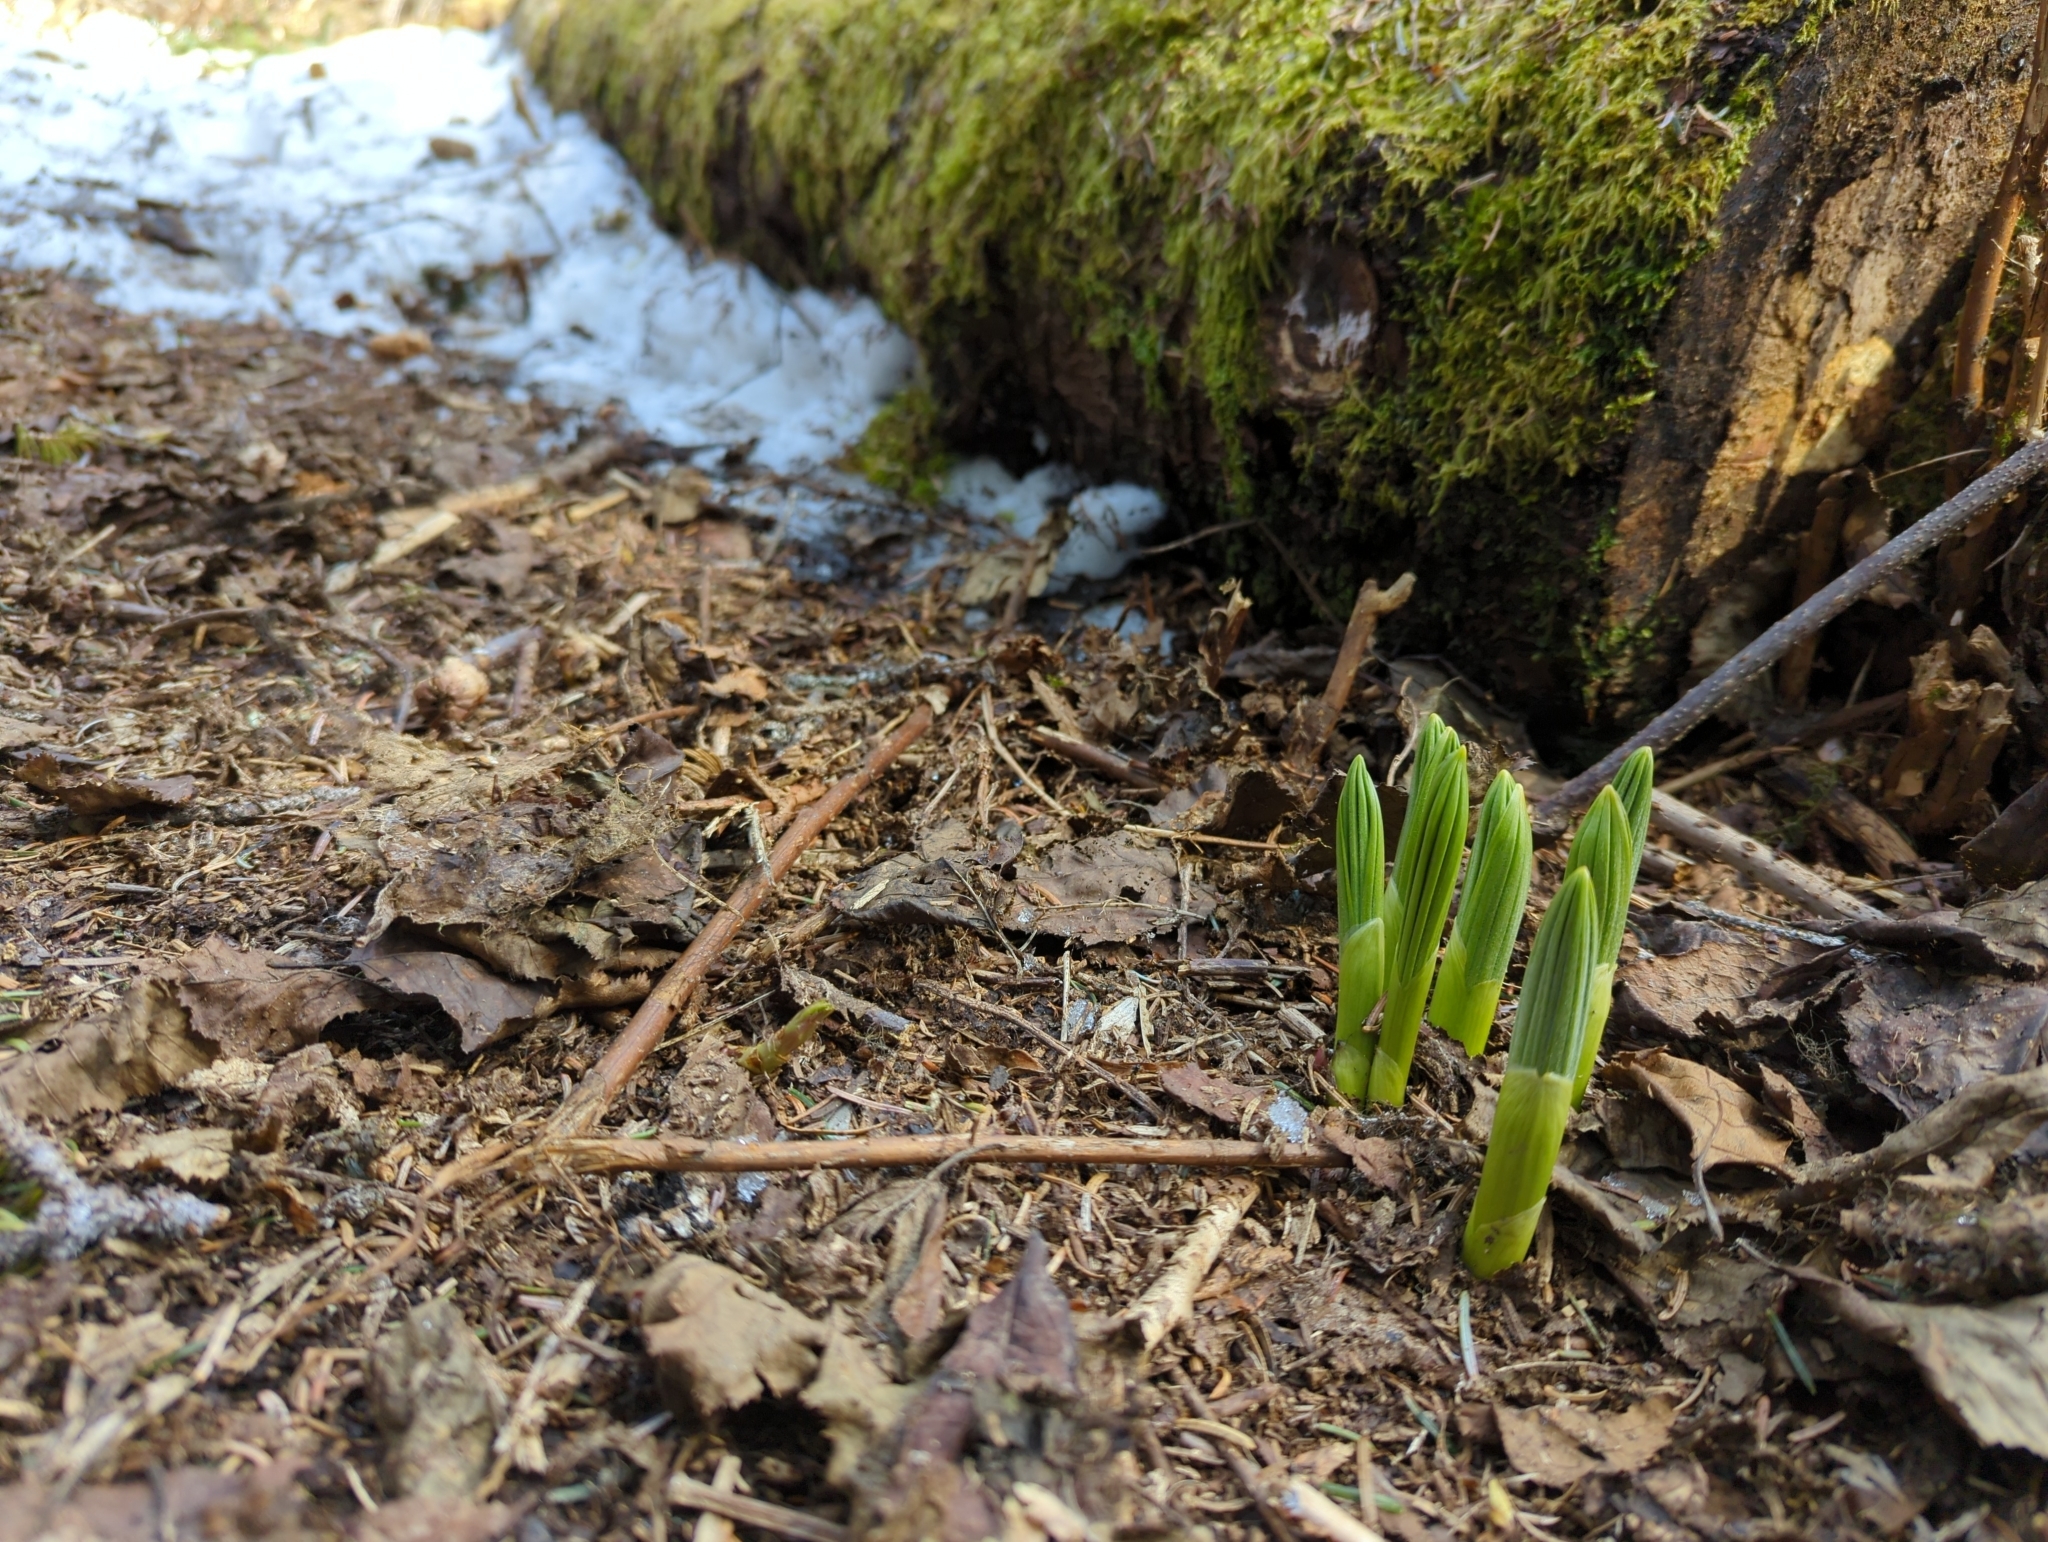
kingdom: Plantae
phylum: Tracheophyta
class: Liliopsida
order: Liliales
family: Melanthiaceae
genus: Veratrum
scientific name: Veratrum viride
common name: American false hellebore
